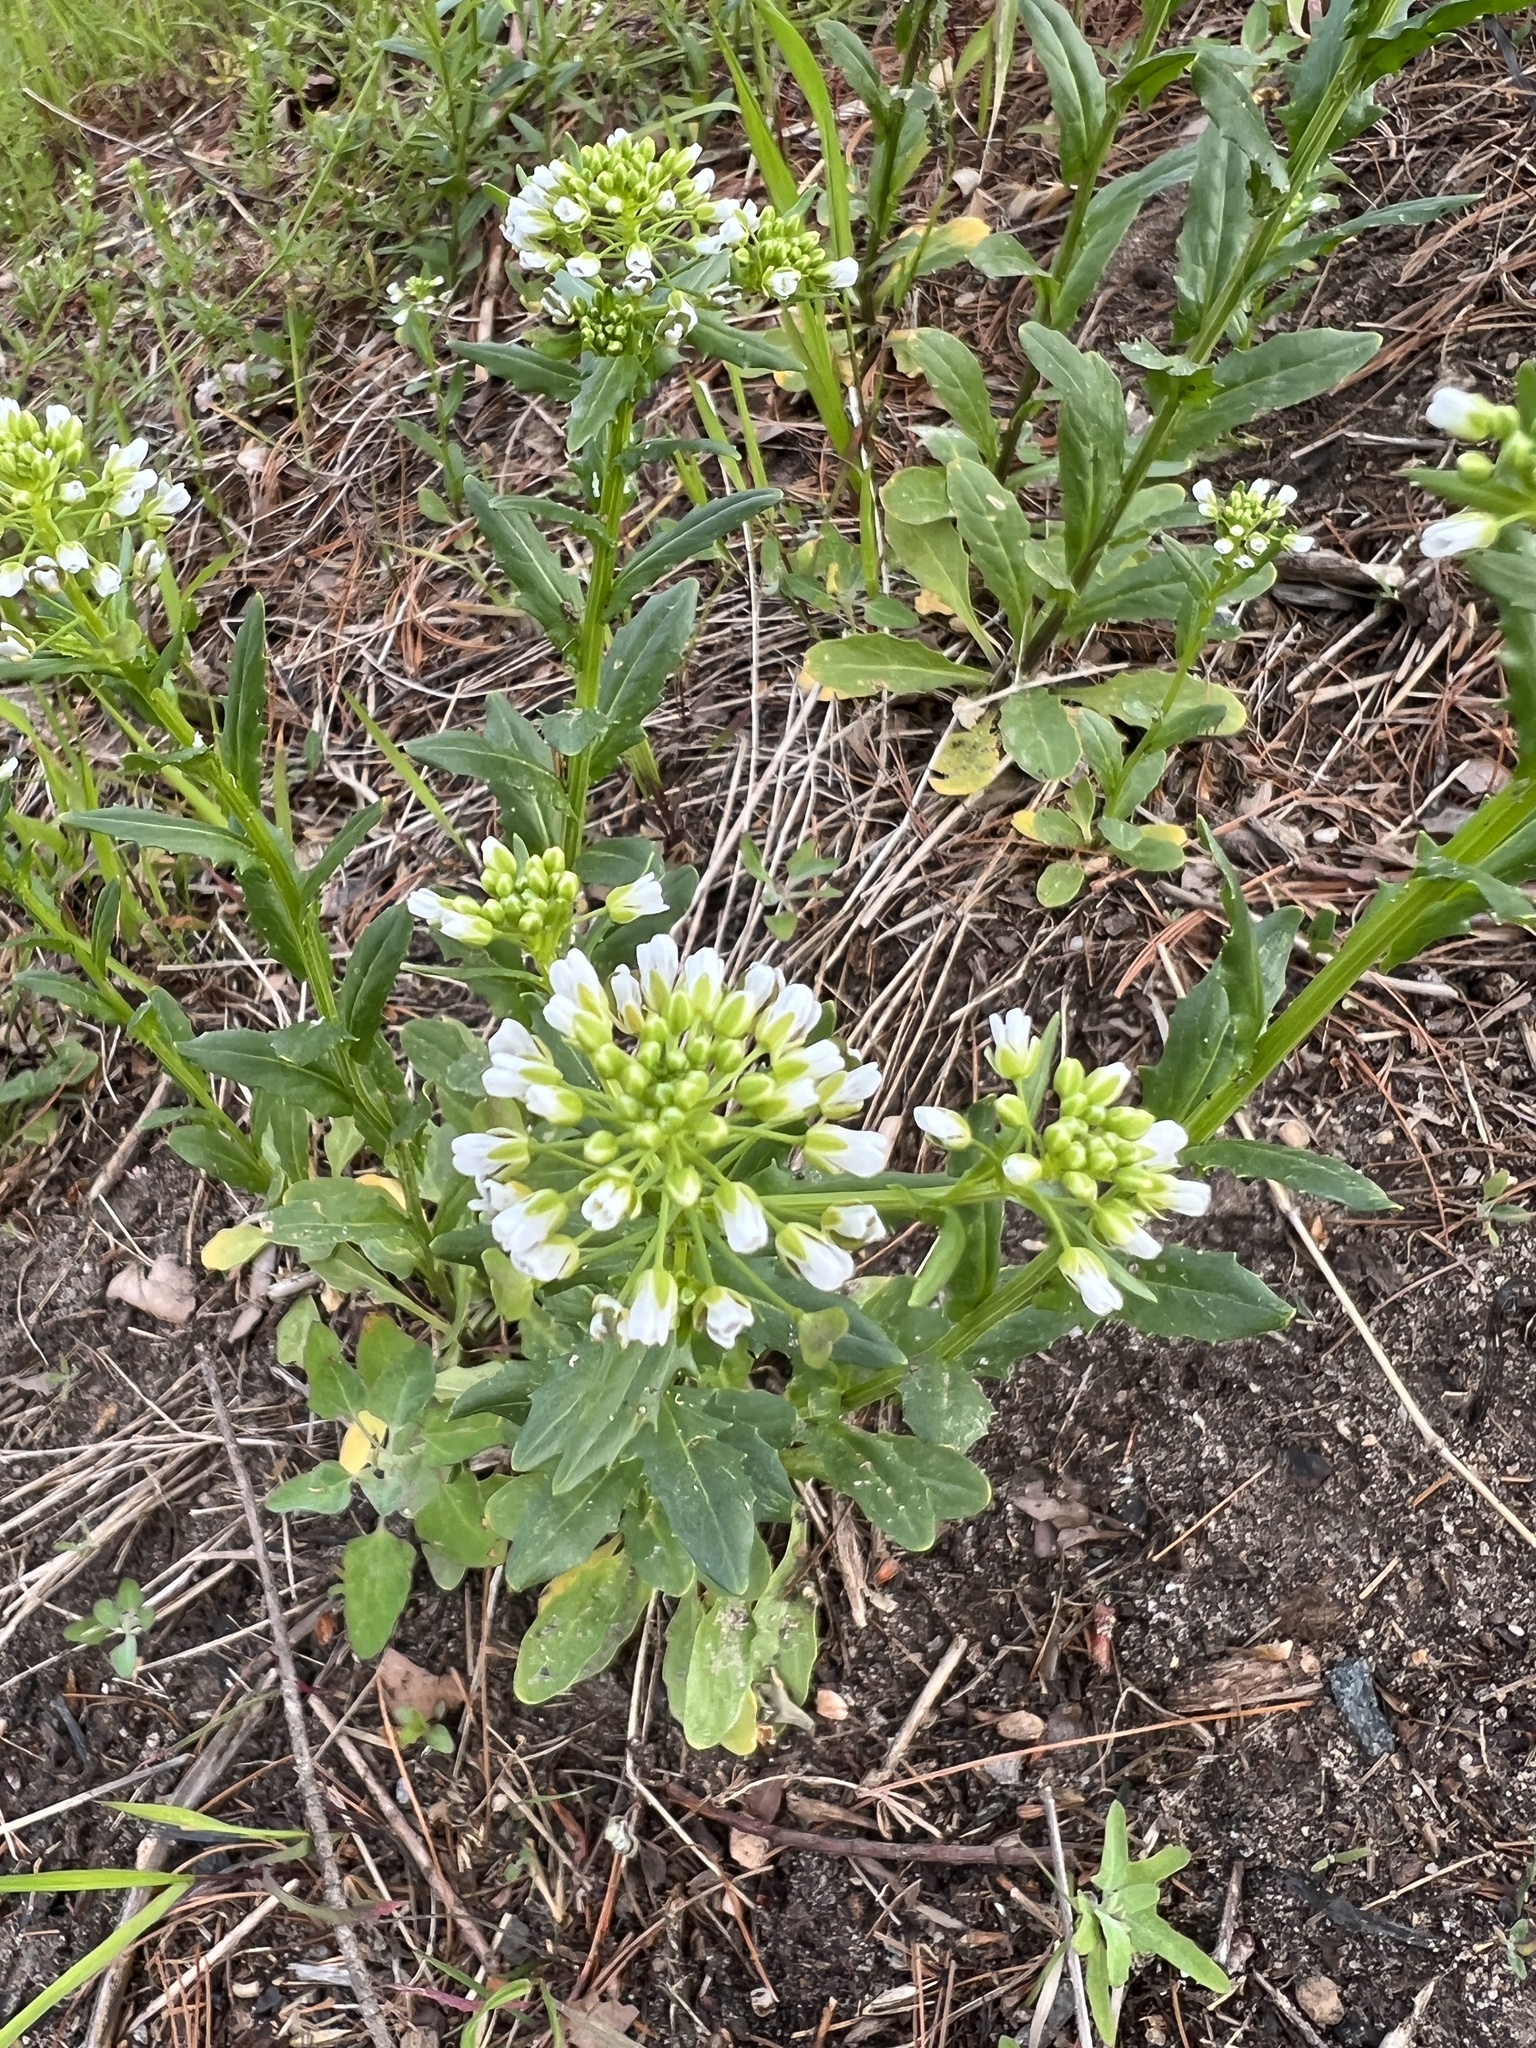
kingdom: Plantae
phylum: Tracheophyta
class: Magnoliopsida
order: Brassicales
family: Brassicaceae
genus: Thlaspi
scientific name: Thlaspi arvense
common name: Field pennycress
